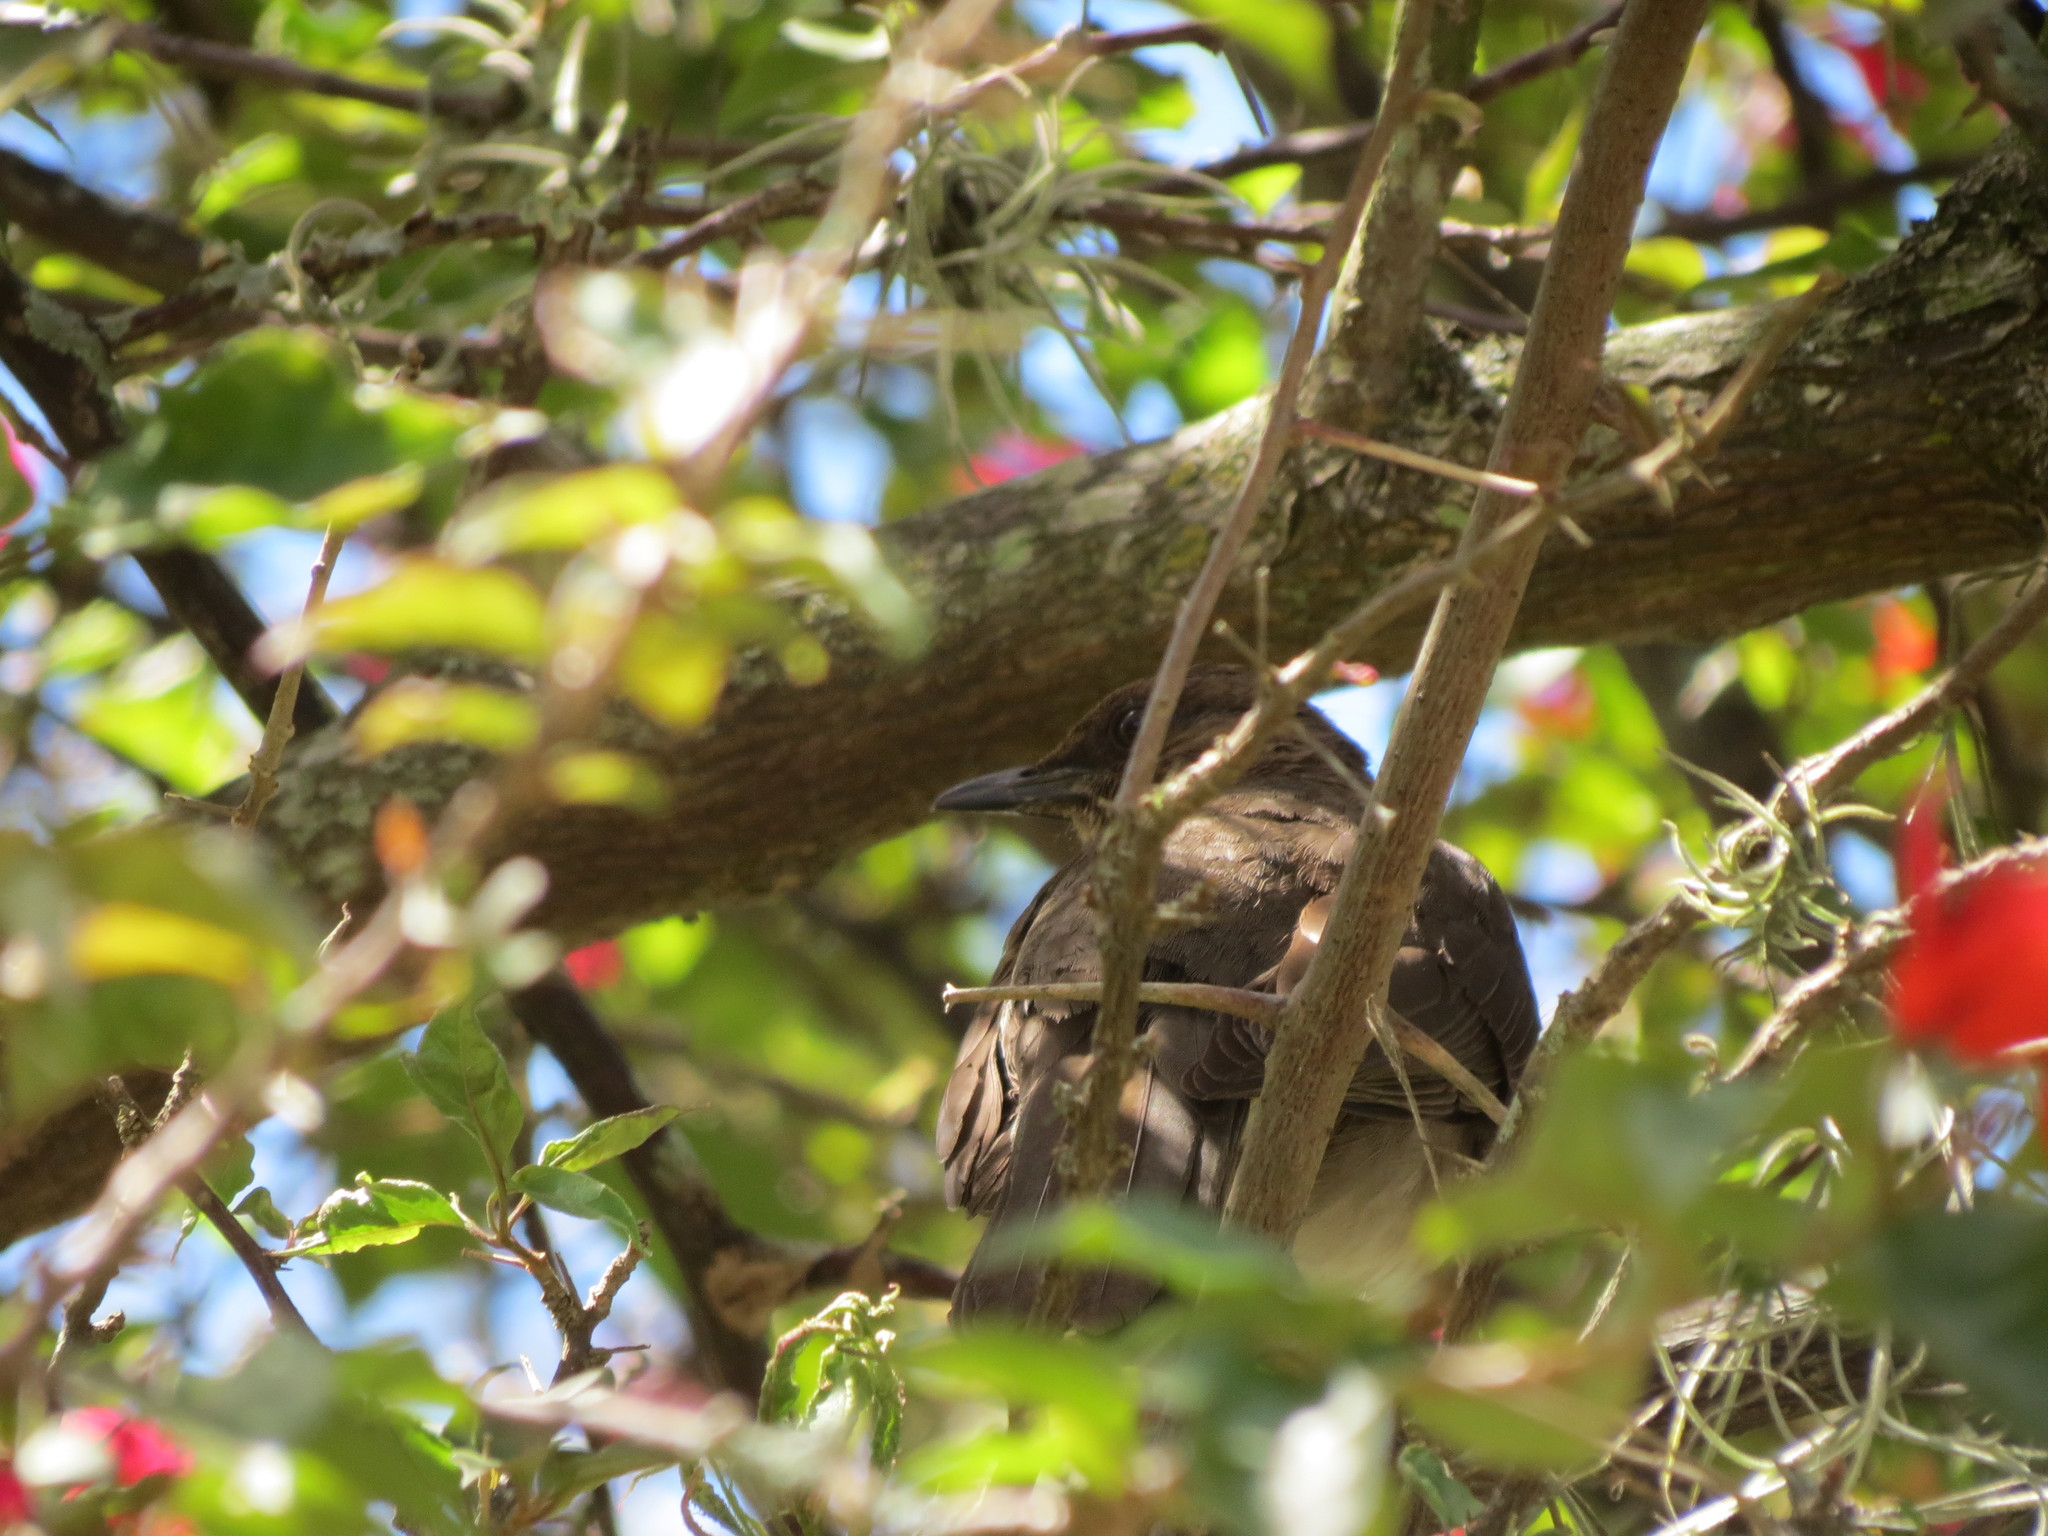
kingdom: Animalia
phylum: Chordata
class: Aves
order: Passeriformes
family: Turdidae
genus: Turdus
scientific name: Turdus ignobilis
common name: Black-billed thrush
